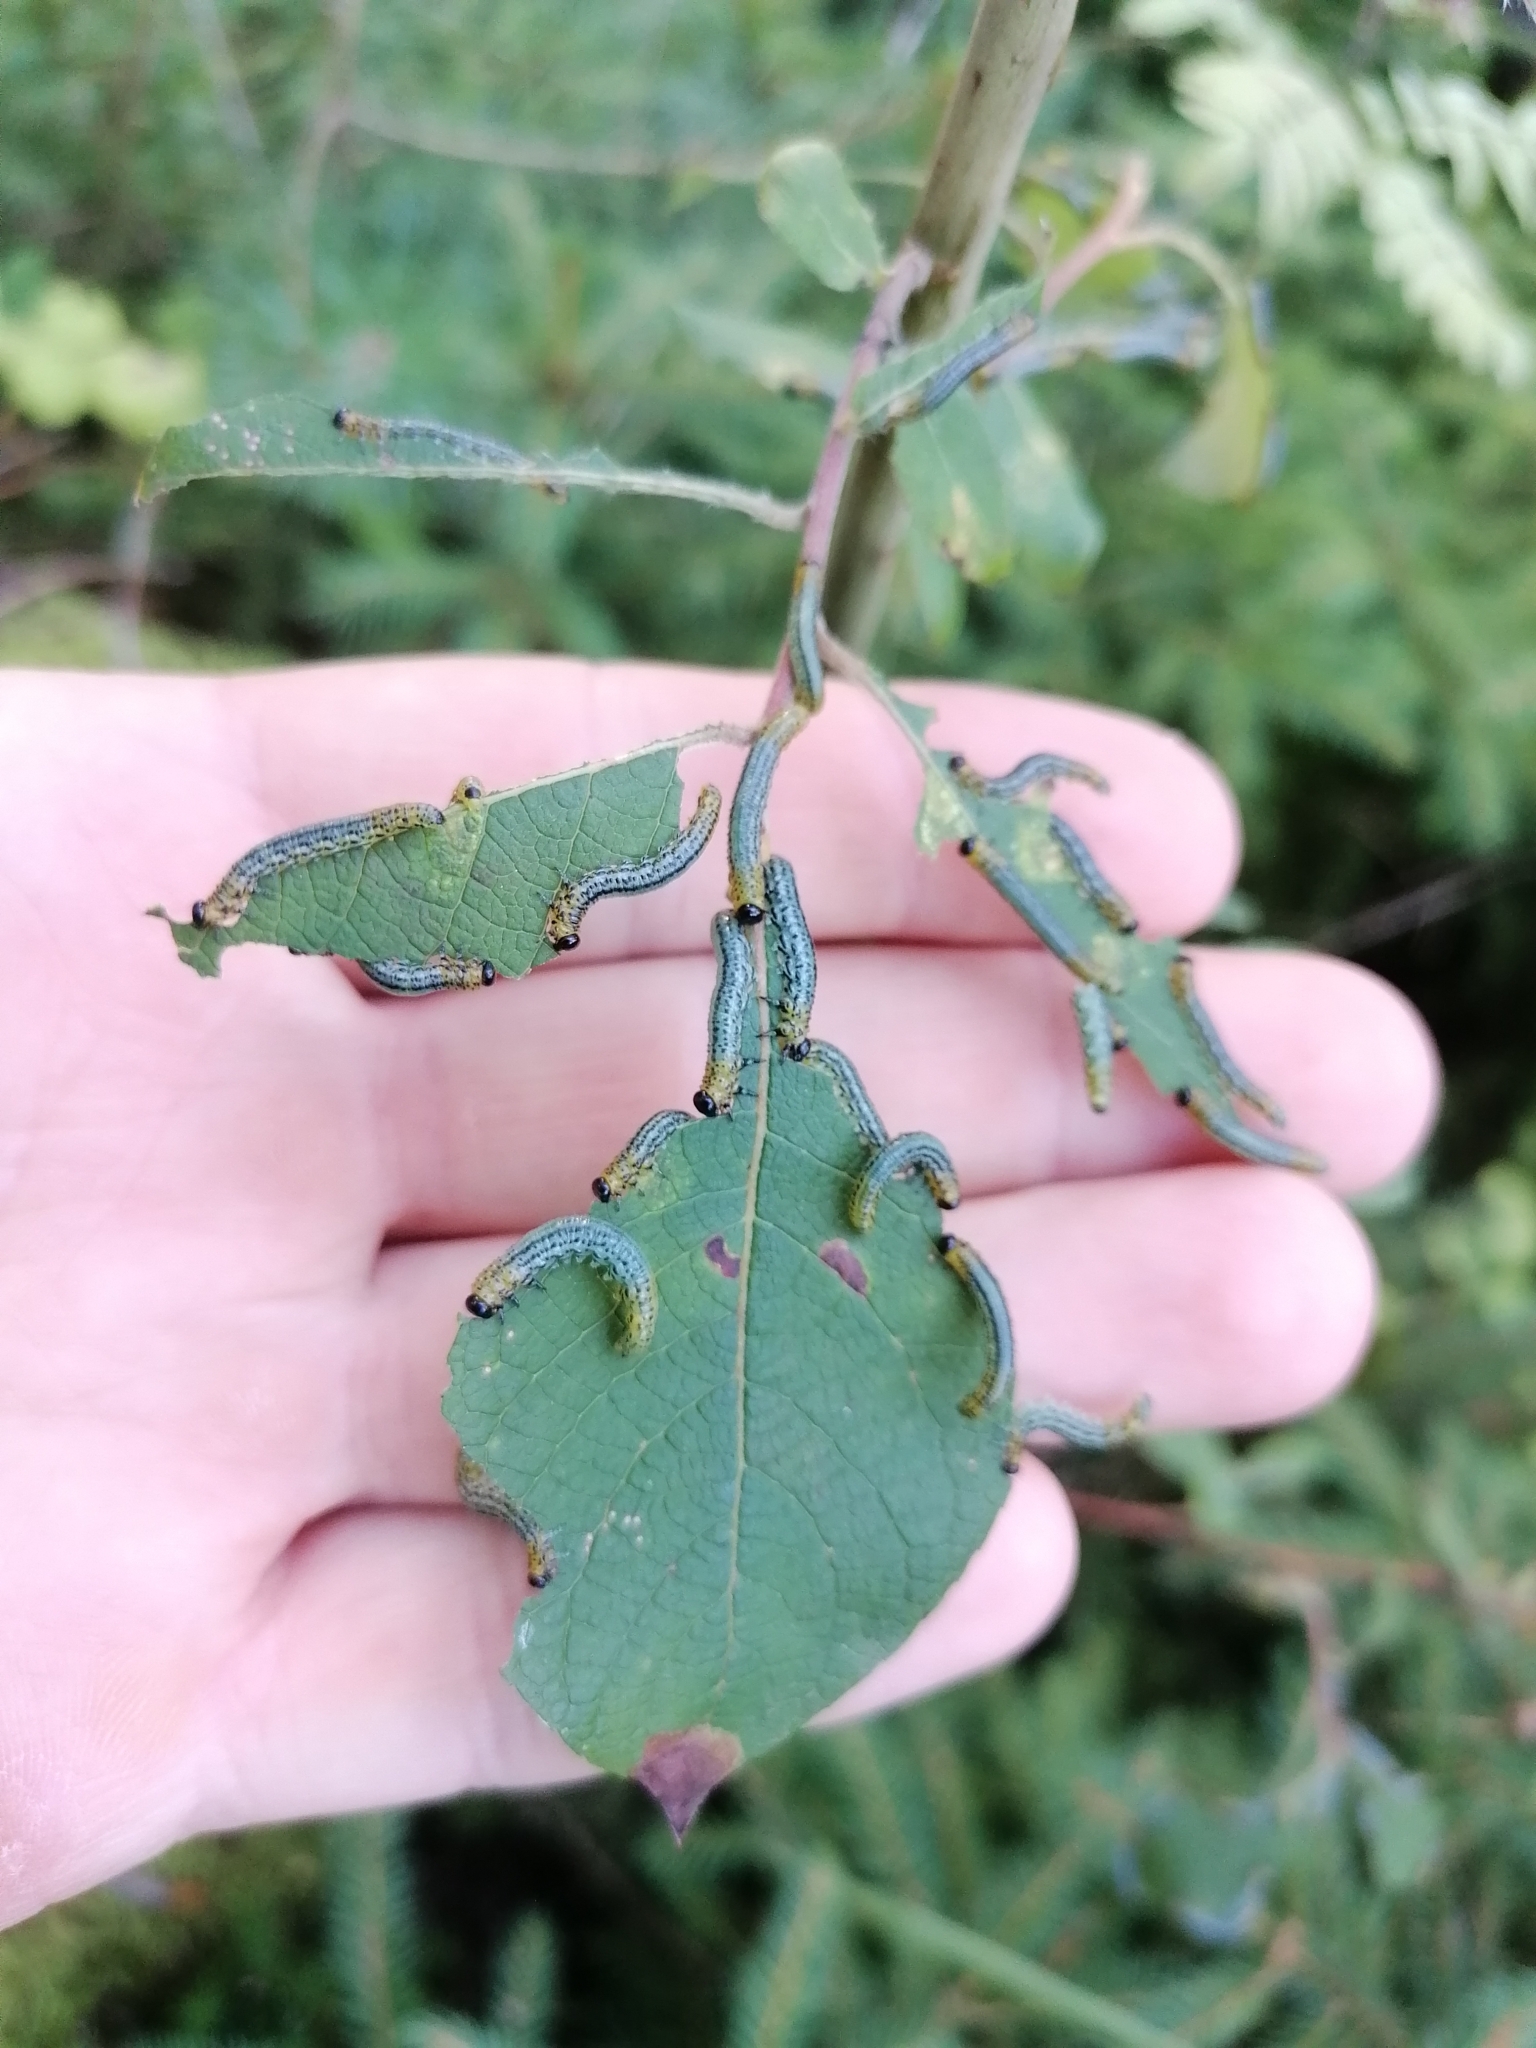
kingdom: Animalia
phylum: Arthropoda
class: Insecta
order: Hymenoptera
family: Tenthredinidae
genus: Nematus
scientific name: Nematus miliaris
